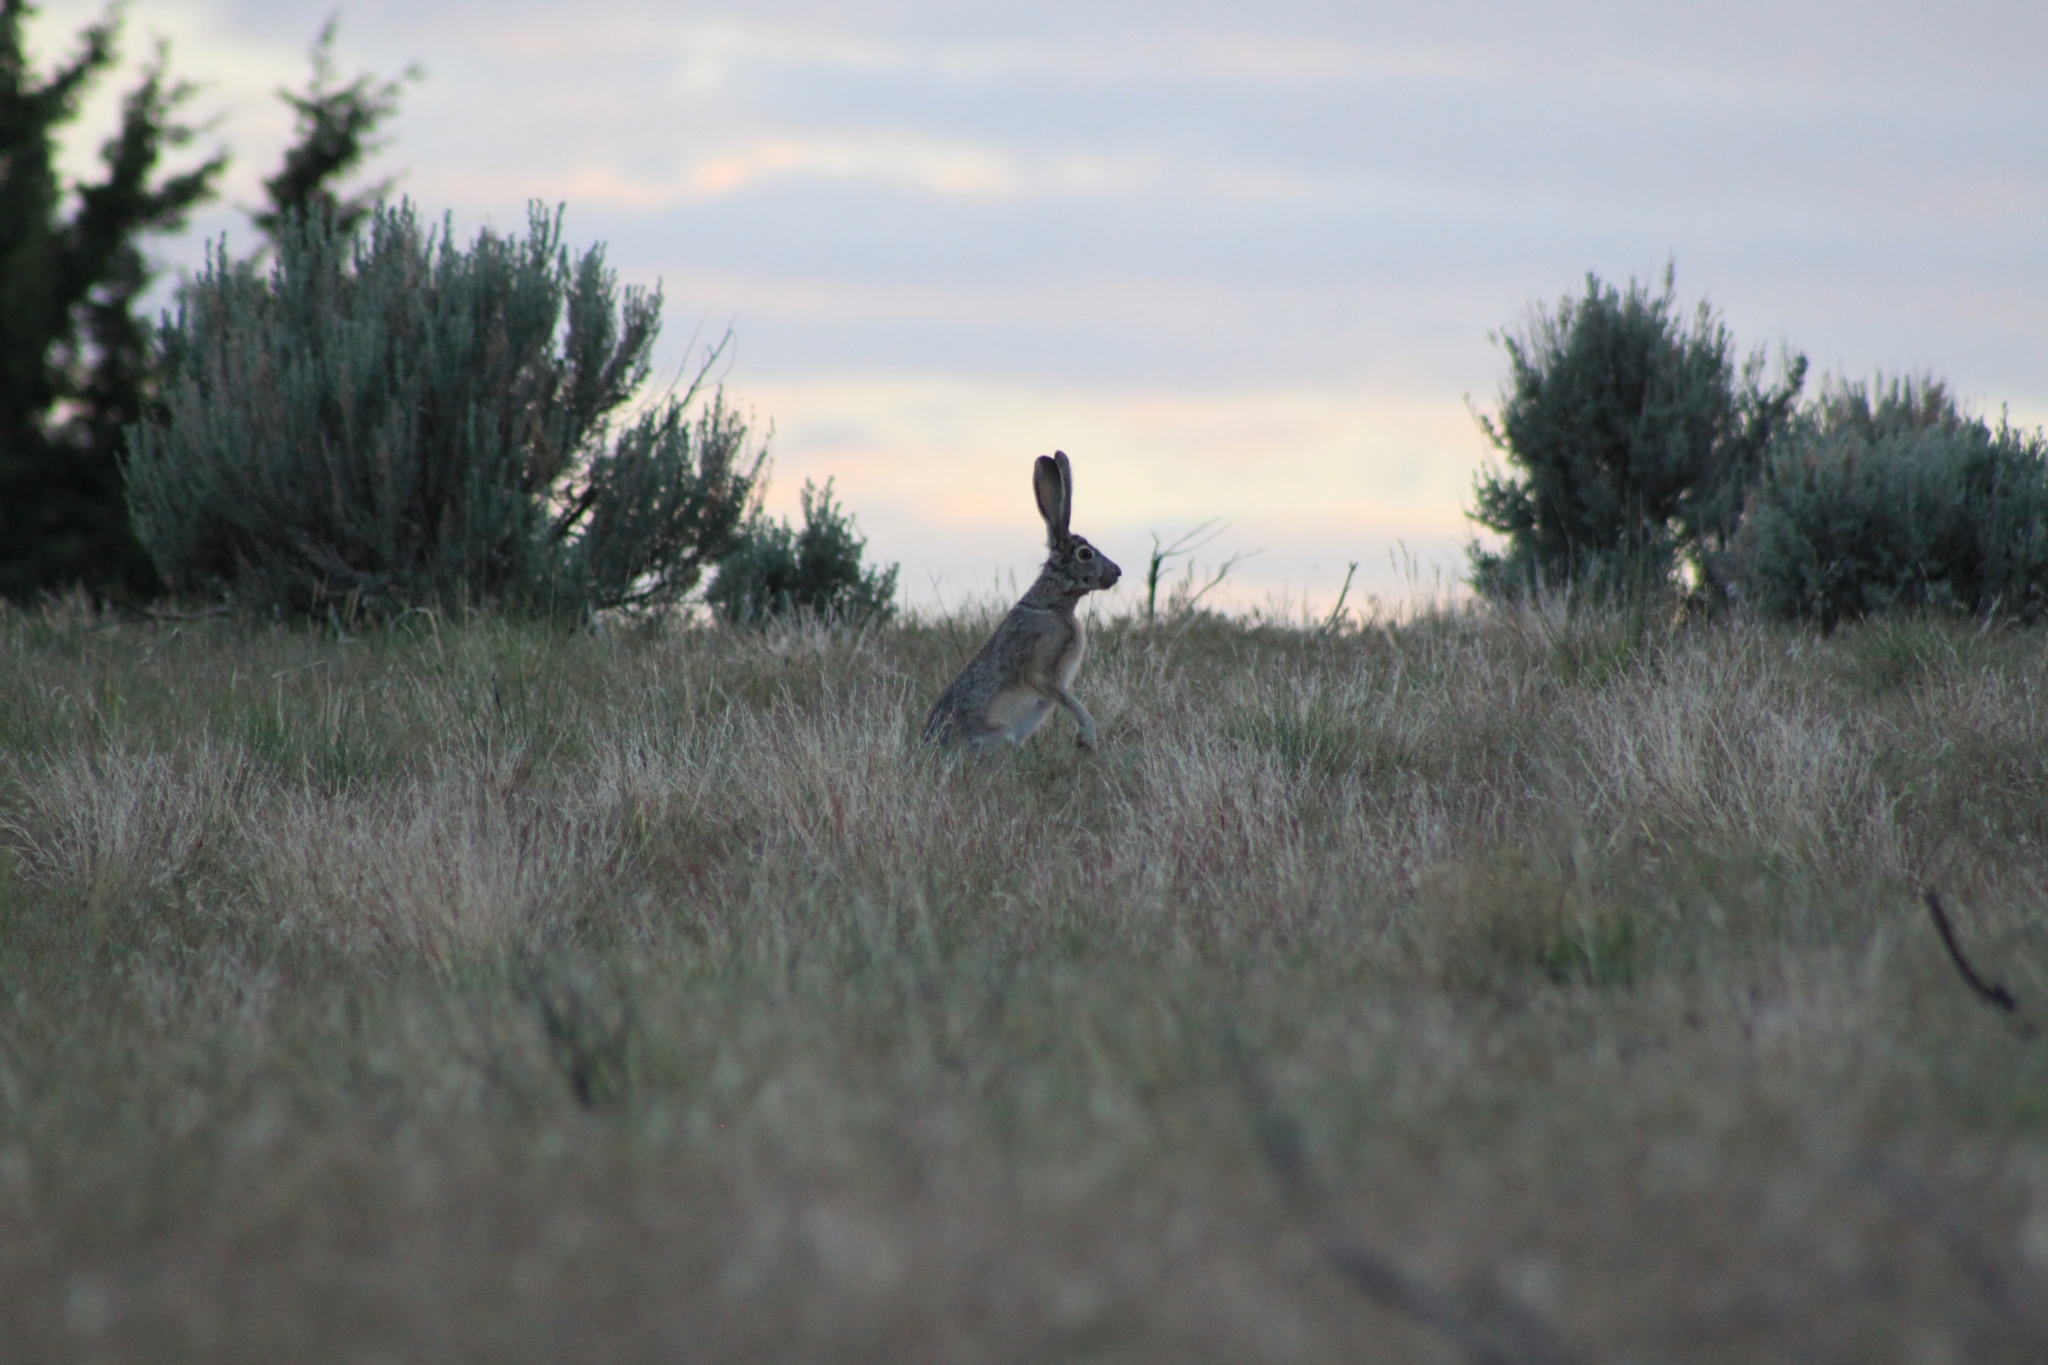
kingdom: Animalia
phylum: Chordata
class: Mammalia
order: Lagomorpha
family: Leporidae
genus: Lepus
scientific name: Lepus californicus
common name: Black-tailed jackrabbit
